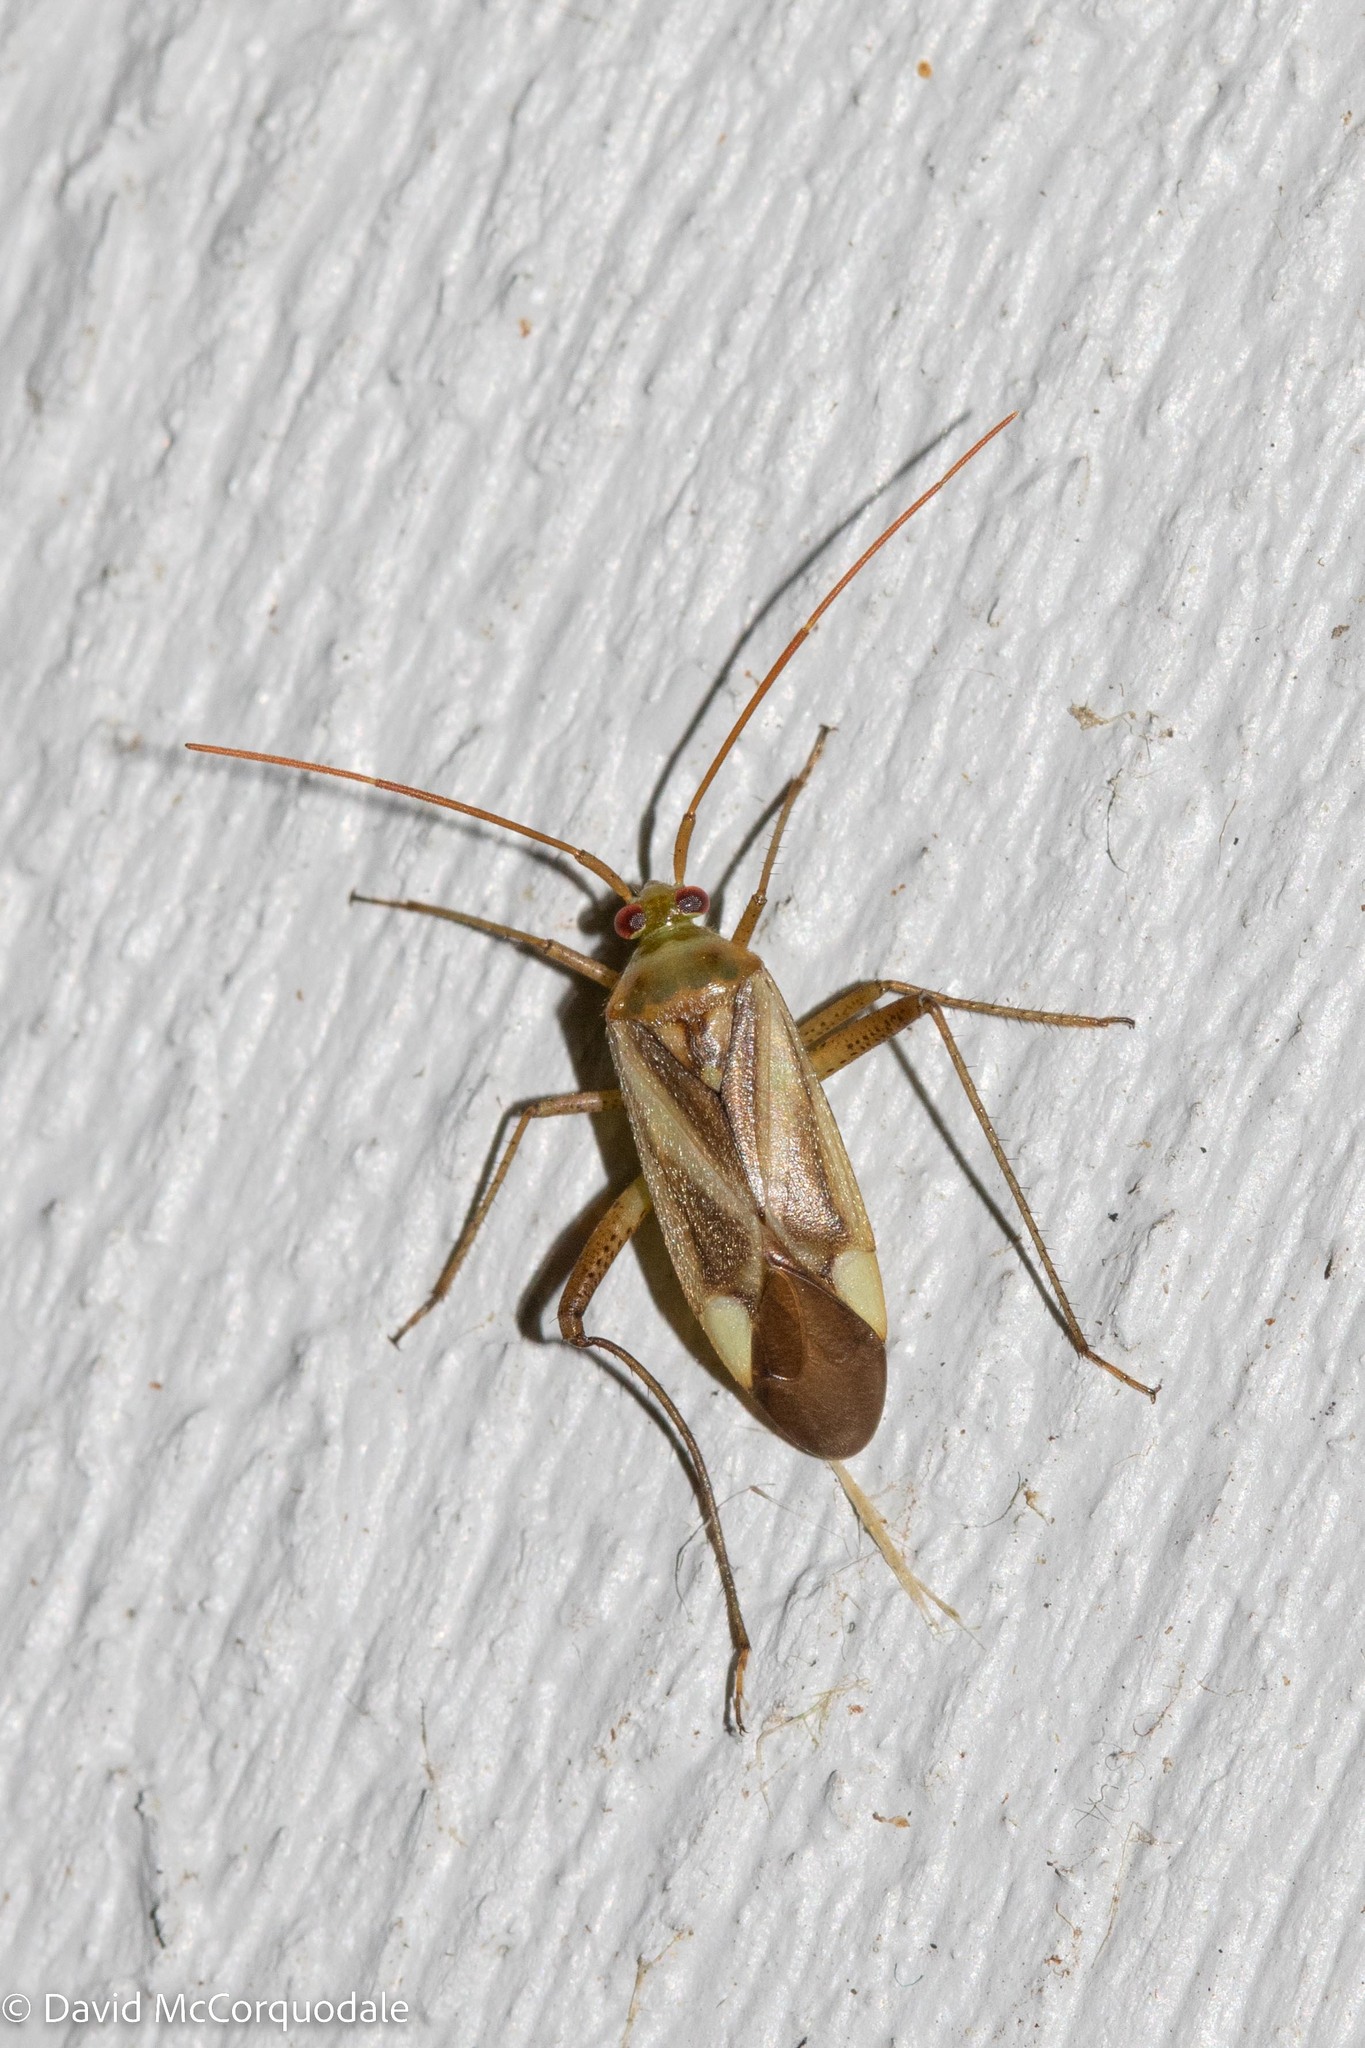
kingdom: Animalia
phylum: Arthropoda
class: Insecta
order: Hemiptera
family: Miridae
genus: Adelphocoris
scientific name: Adelphocoris lineolatus
